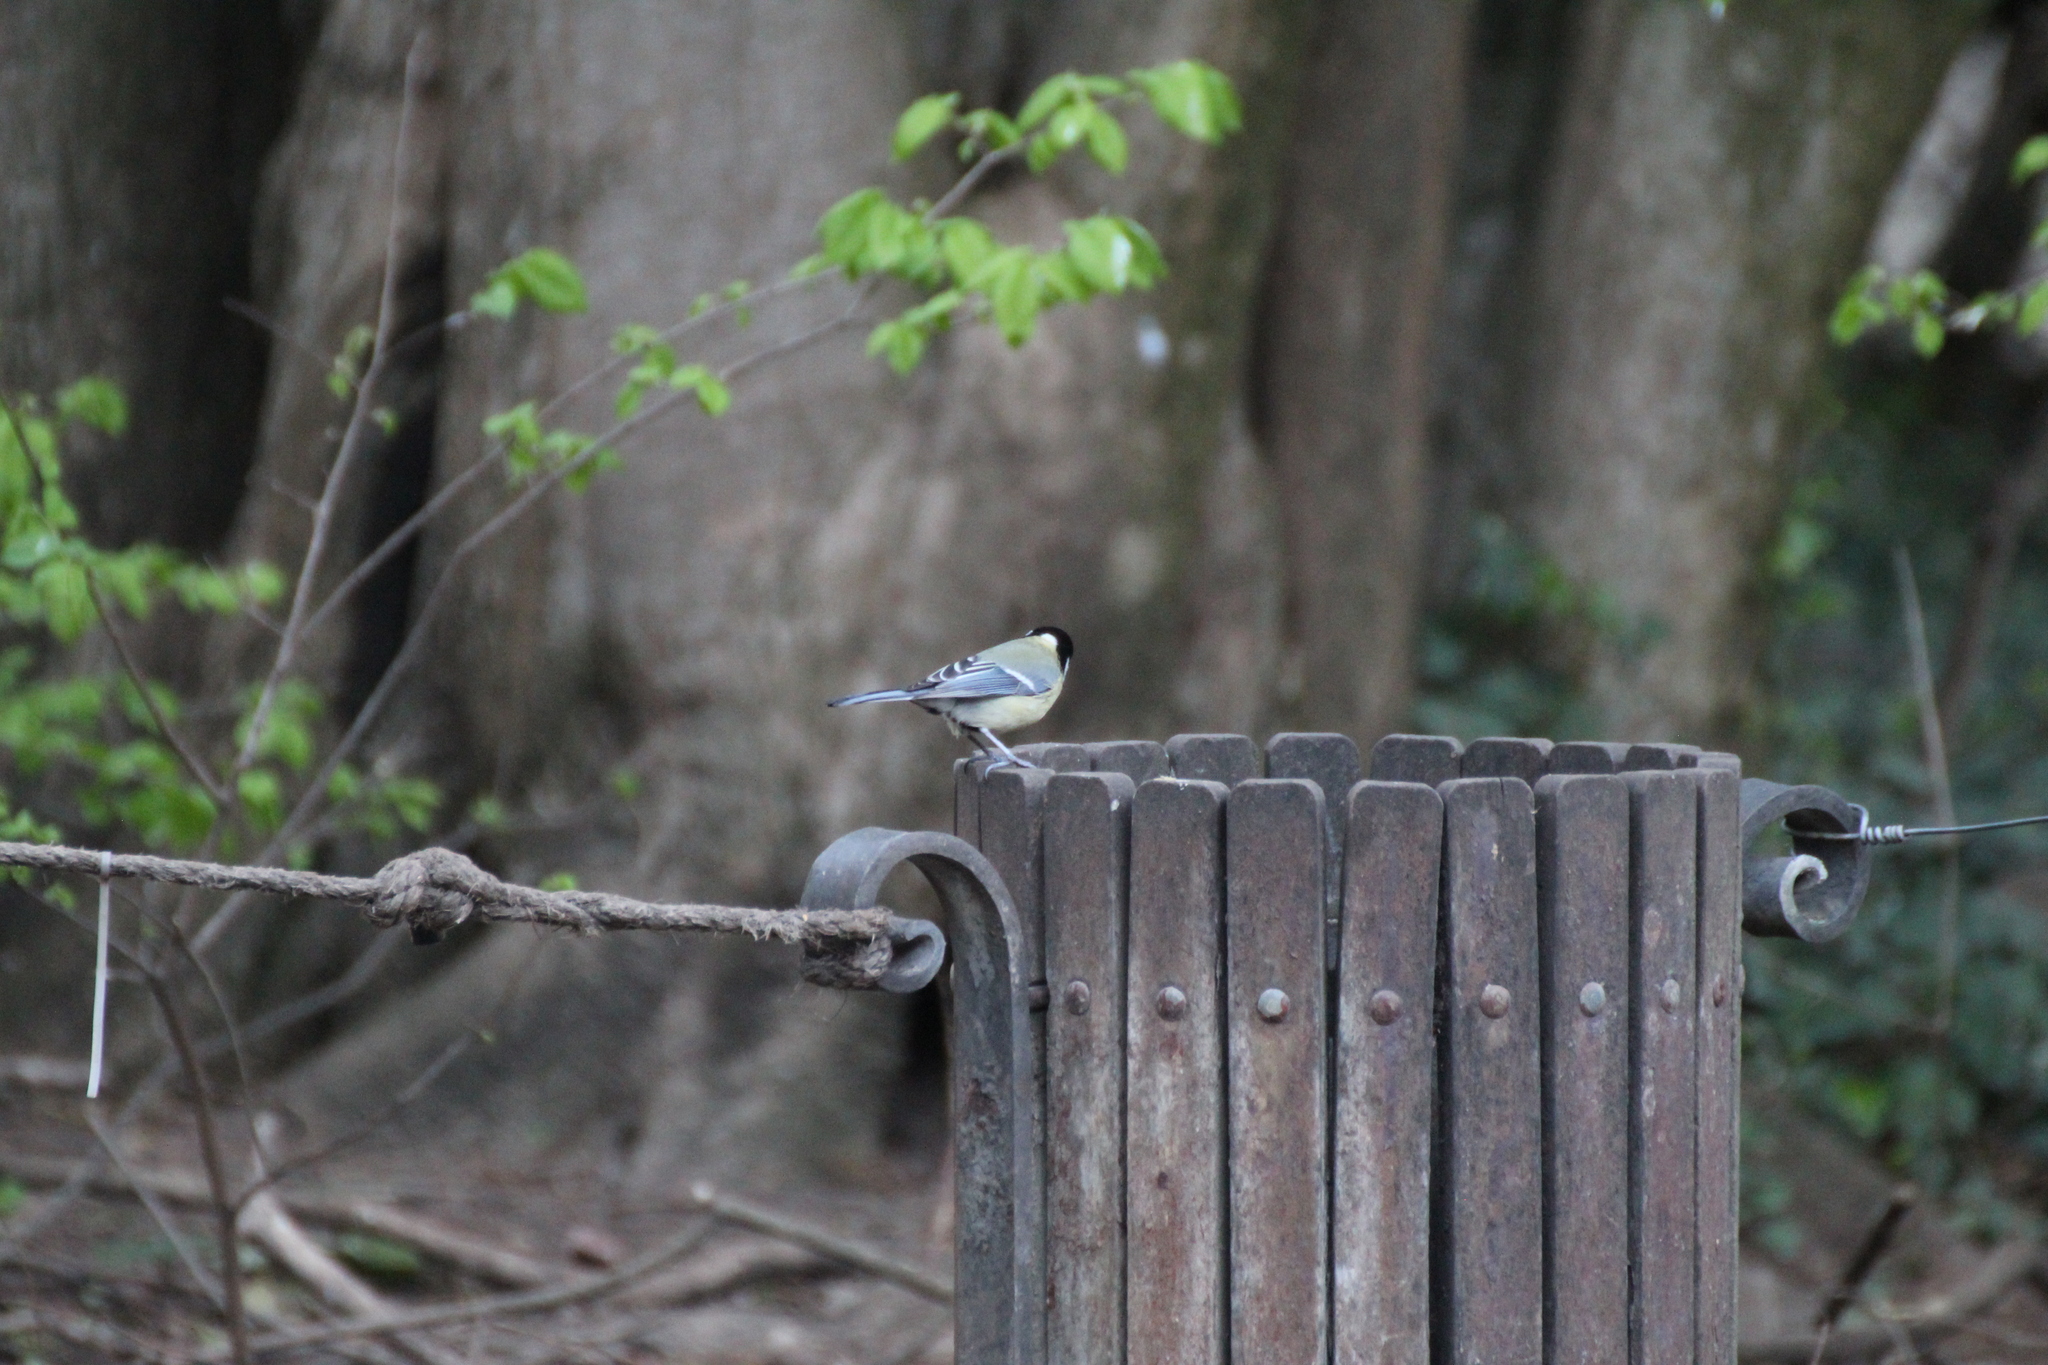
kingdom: Animalia
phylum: Chordata
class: Aves
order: Passeriformes
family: Paridae
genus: Parus
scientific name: Parus major
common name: Great tit
